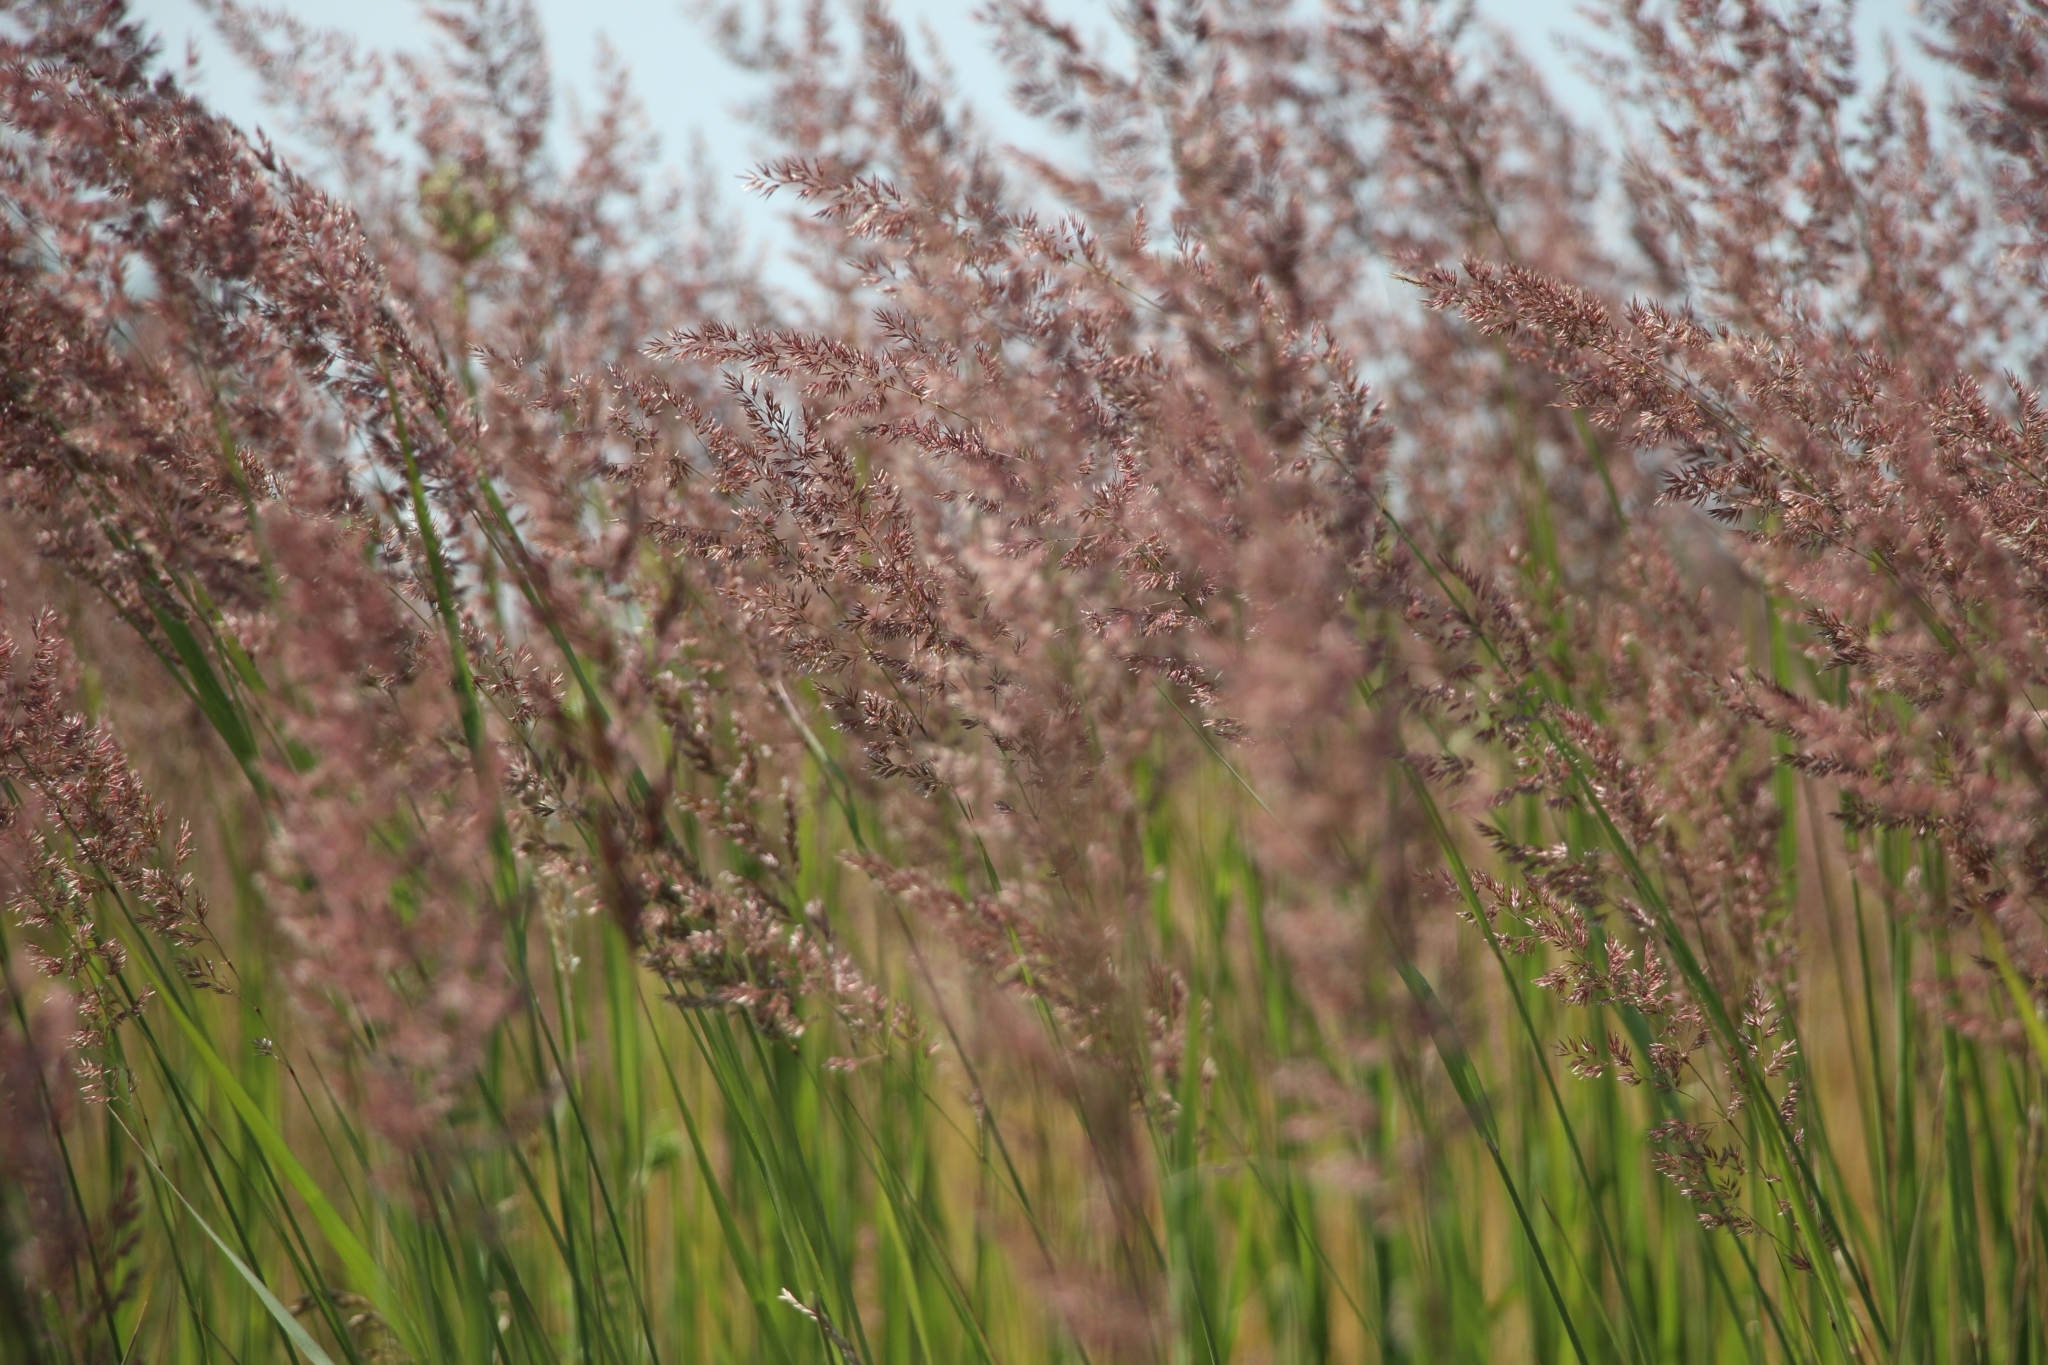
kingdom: Plantae
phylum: Tracheophyta
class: Liliopsida
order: Poales
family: Poaceae
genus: Calamagrostis
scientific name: Calamagrostis epigejos
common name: Wood small-reed
